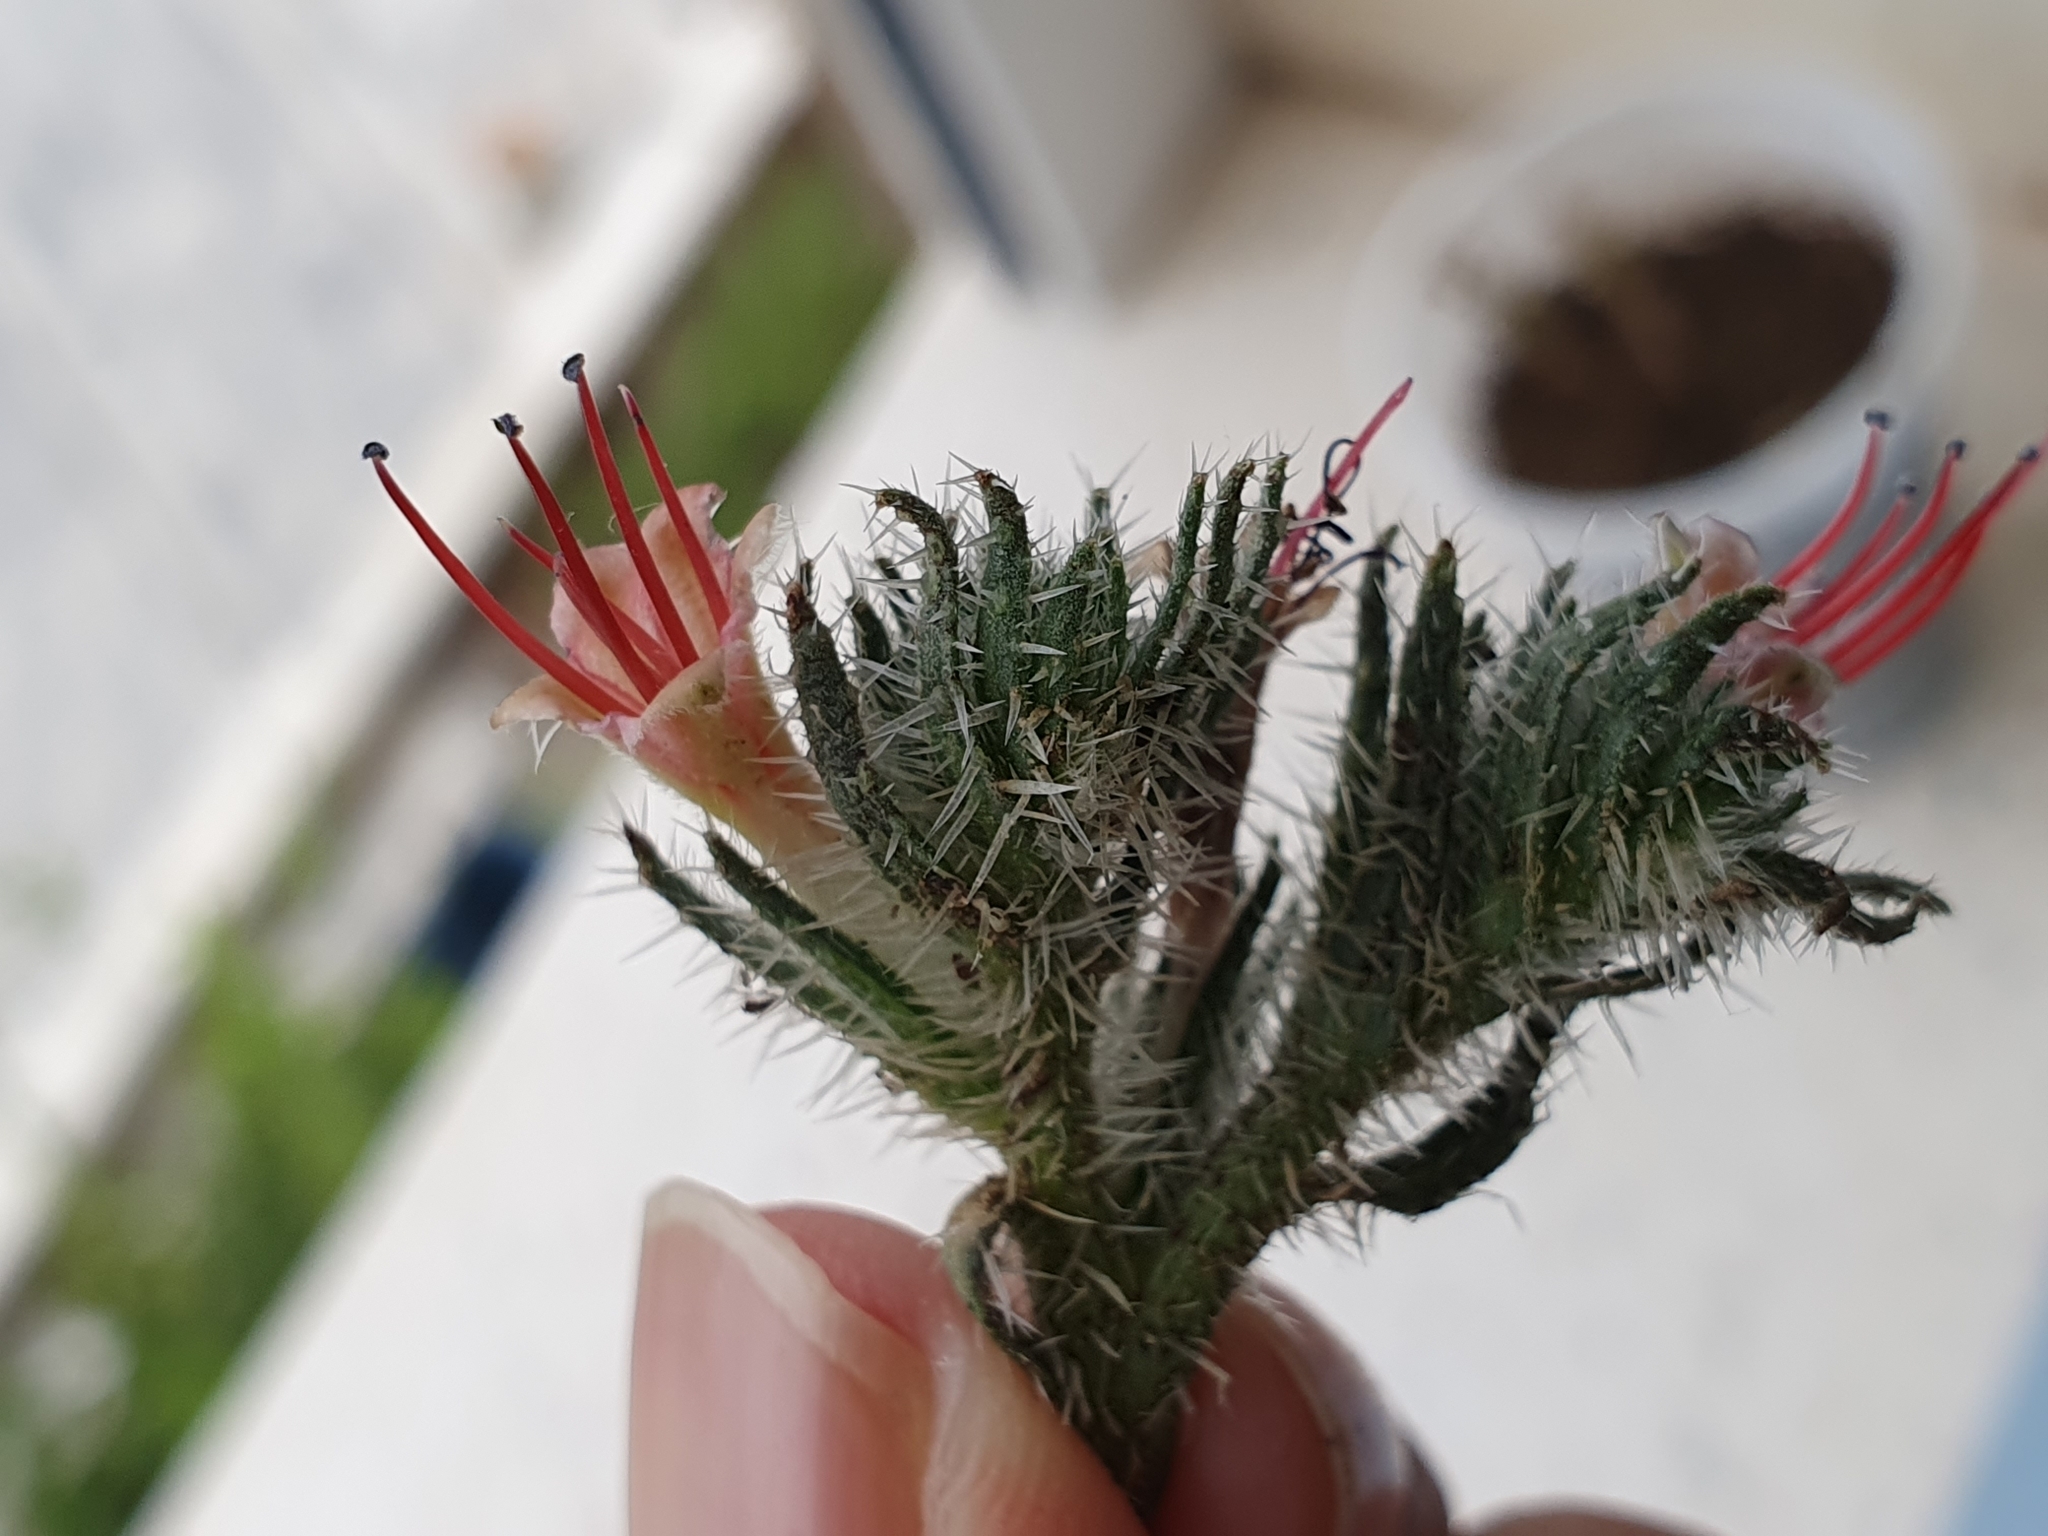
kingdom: Plantae
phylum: Tracheophyta
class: Magnoliopsida
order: Boraginales
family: Boraginaceae
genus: Echium
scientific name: Echium asperrimum
